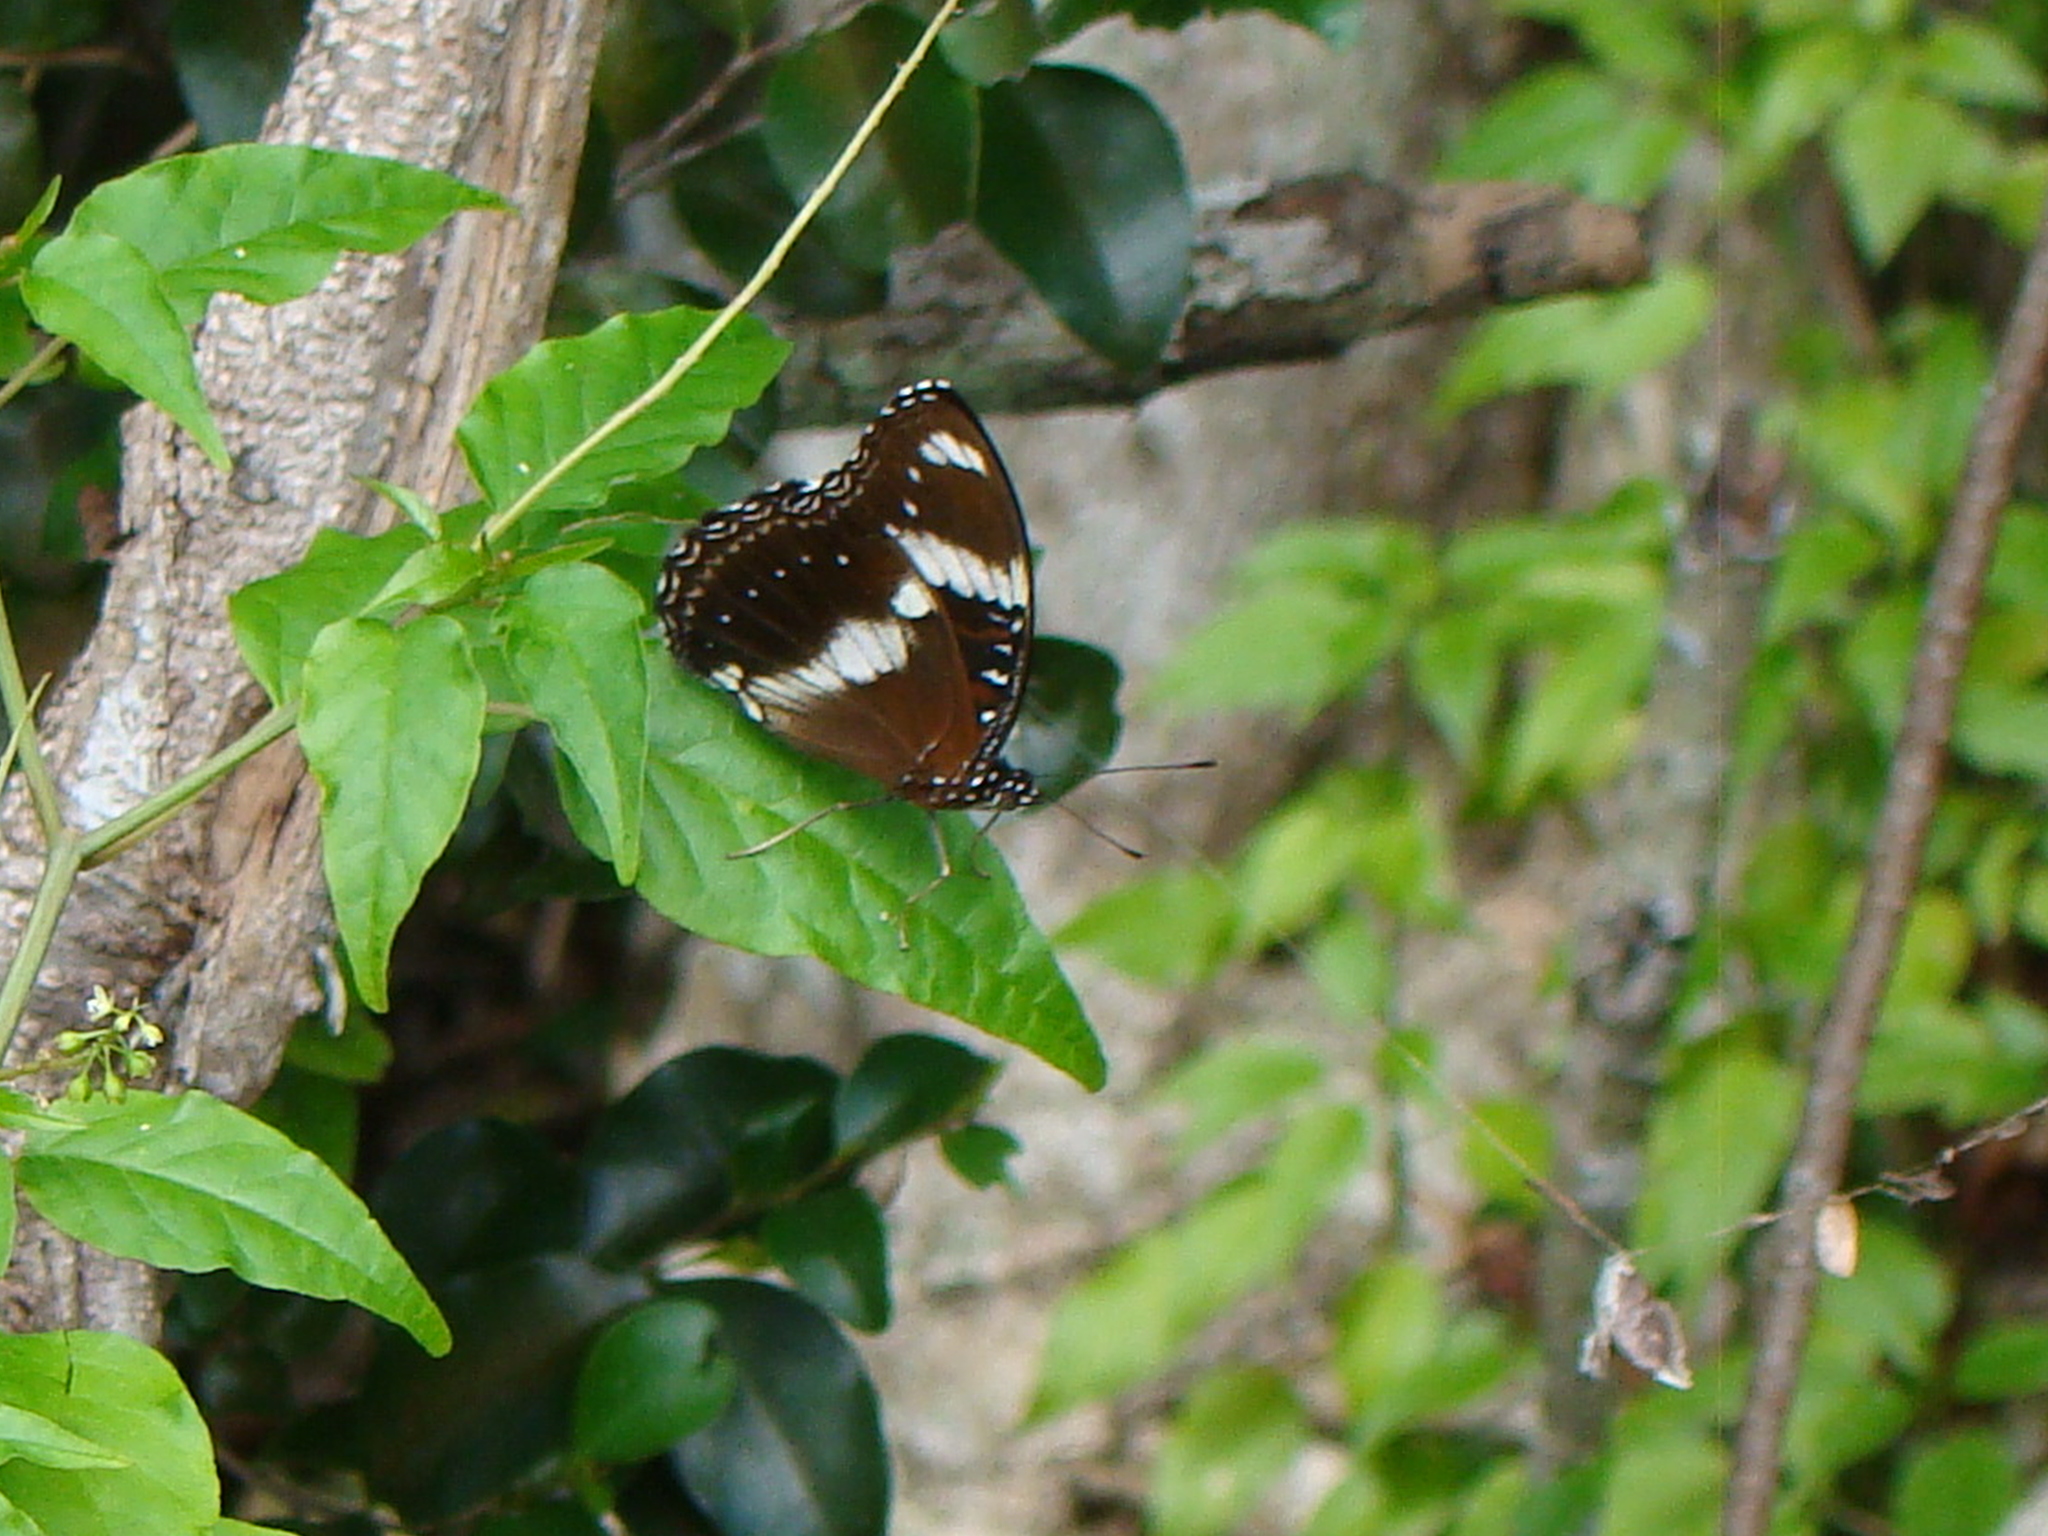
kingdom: Animalia
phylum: Arthropoda
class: Insecta
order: Lepidoptera
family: Nymphalidae
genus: Hypolimnas
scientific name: Hypolimnas bolina
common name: Great eggfly
